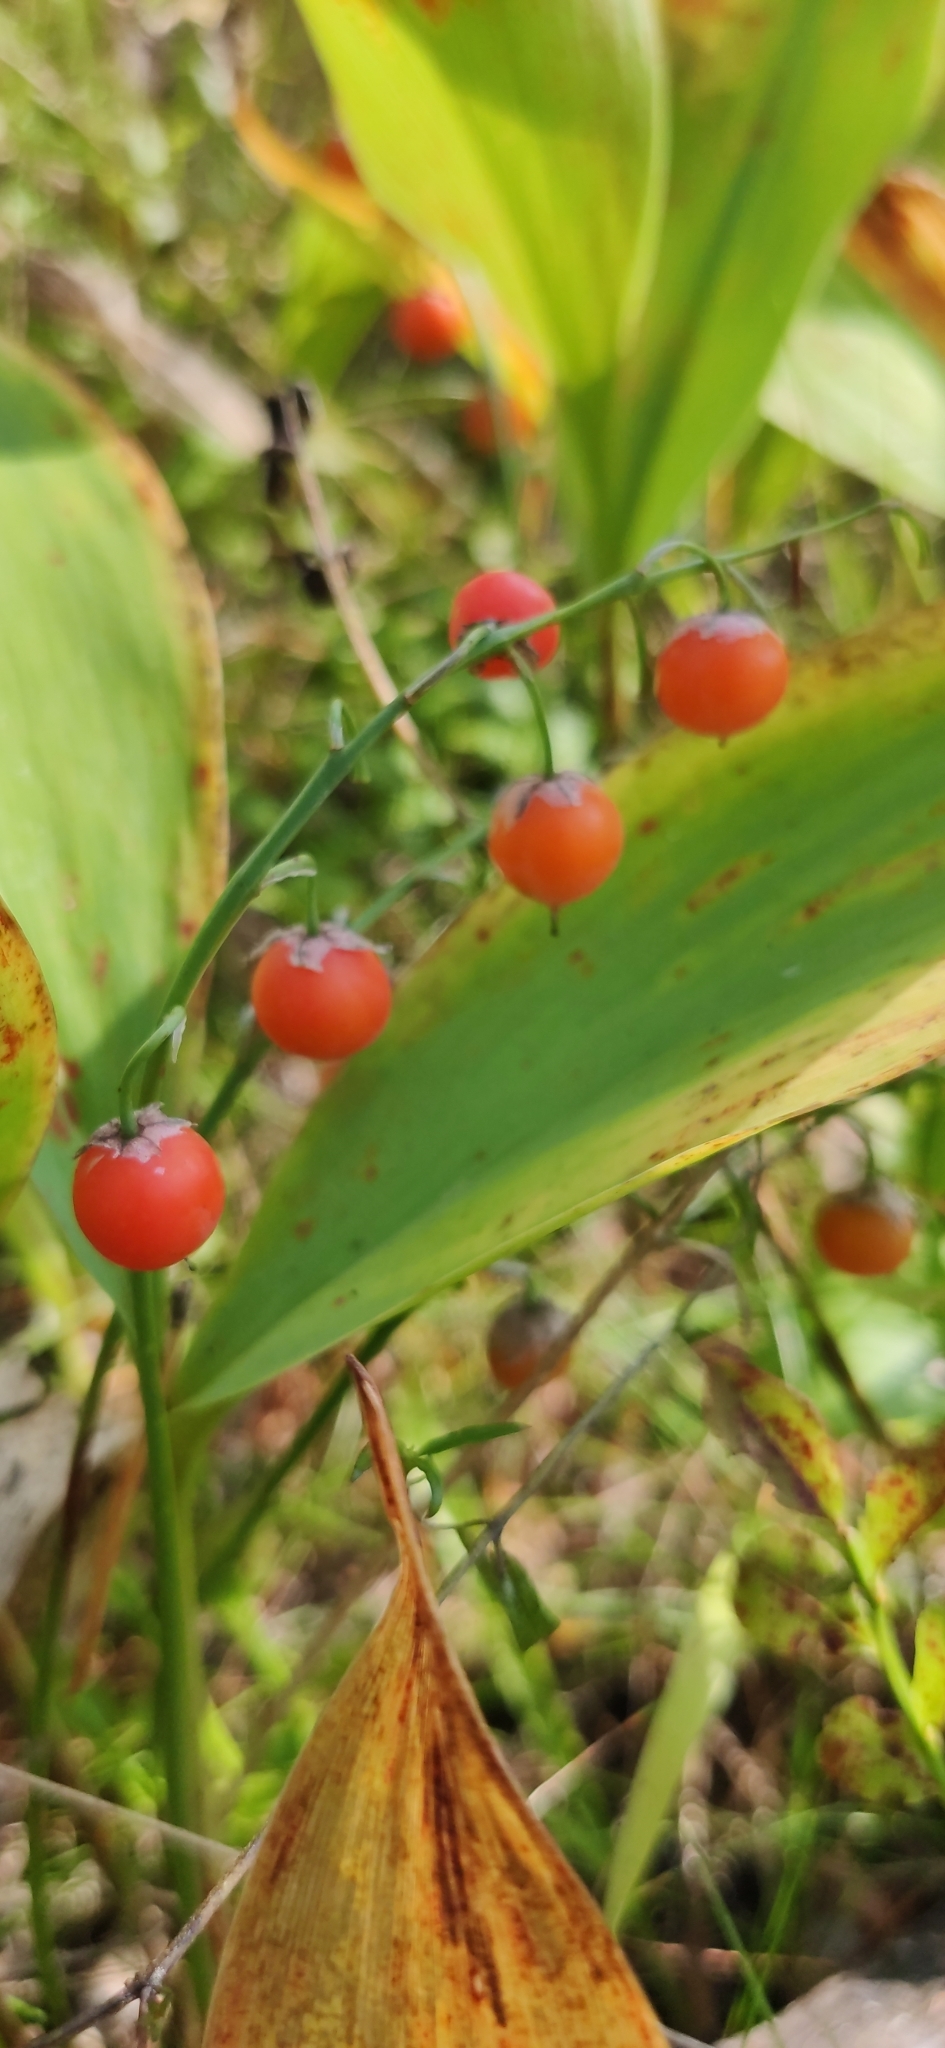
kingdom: Plantae
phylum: Tracheophyta
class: Liliopsida
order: Asparagales
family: Asparagaceae
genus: Convallaria
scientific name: Convallaria majalis
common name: Lily-of-the-valley
